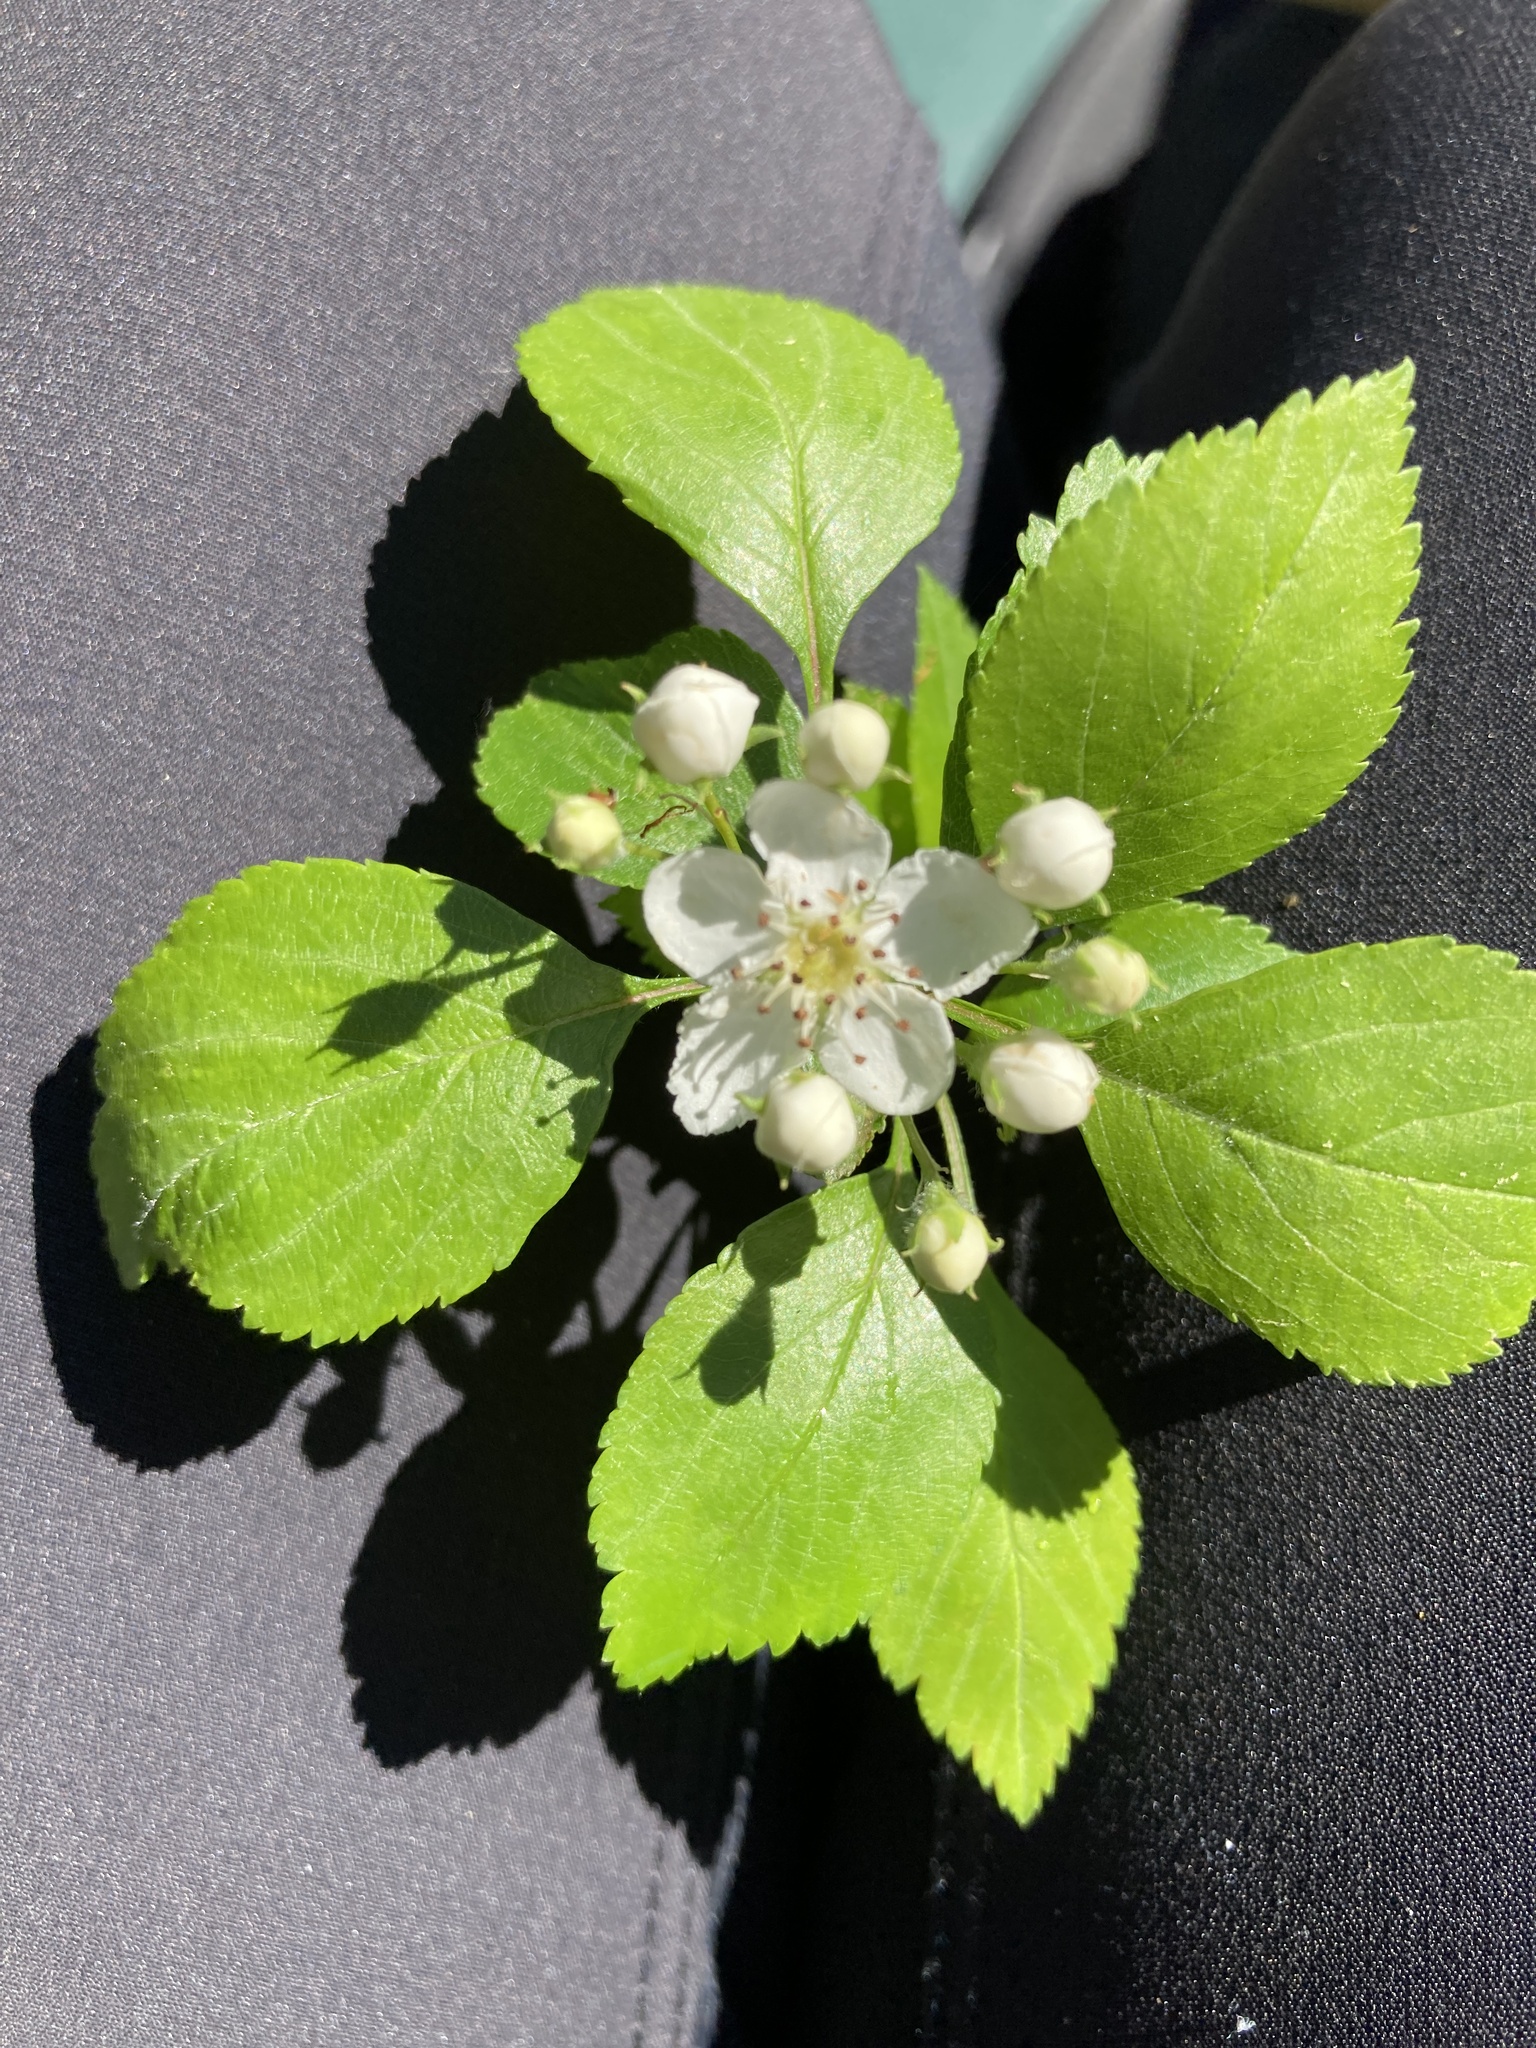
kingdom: Plantae
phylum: Tracheophyta
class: Magnoliopsida
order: Rosales
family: Rosaceae
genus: Crataegus
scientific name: Crataegus viridis
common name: Southernthorn
